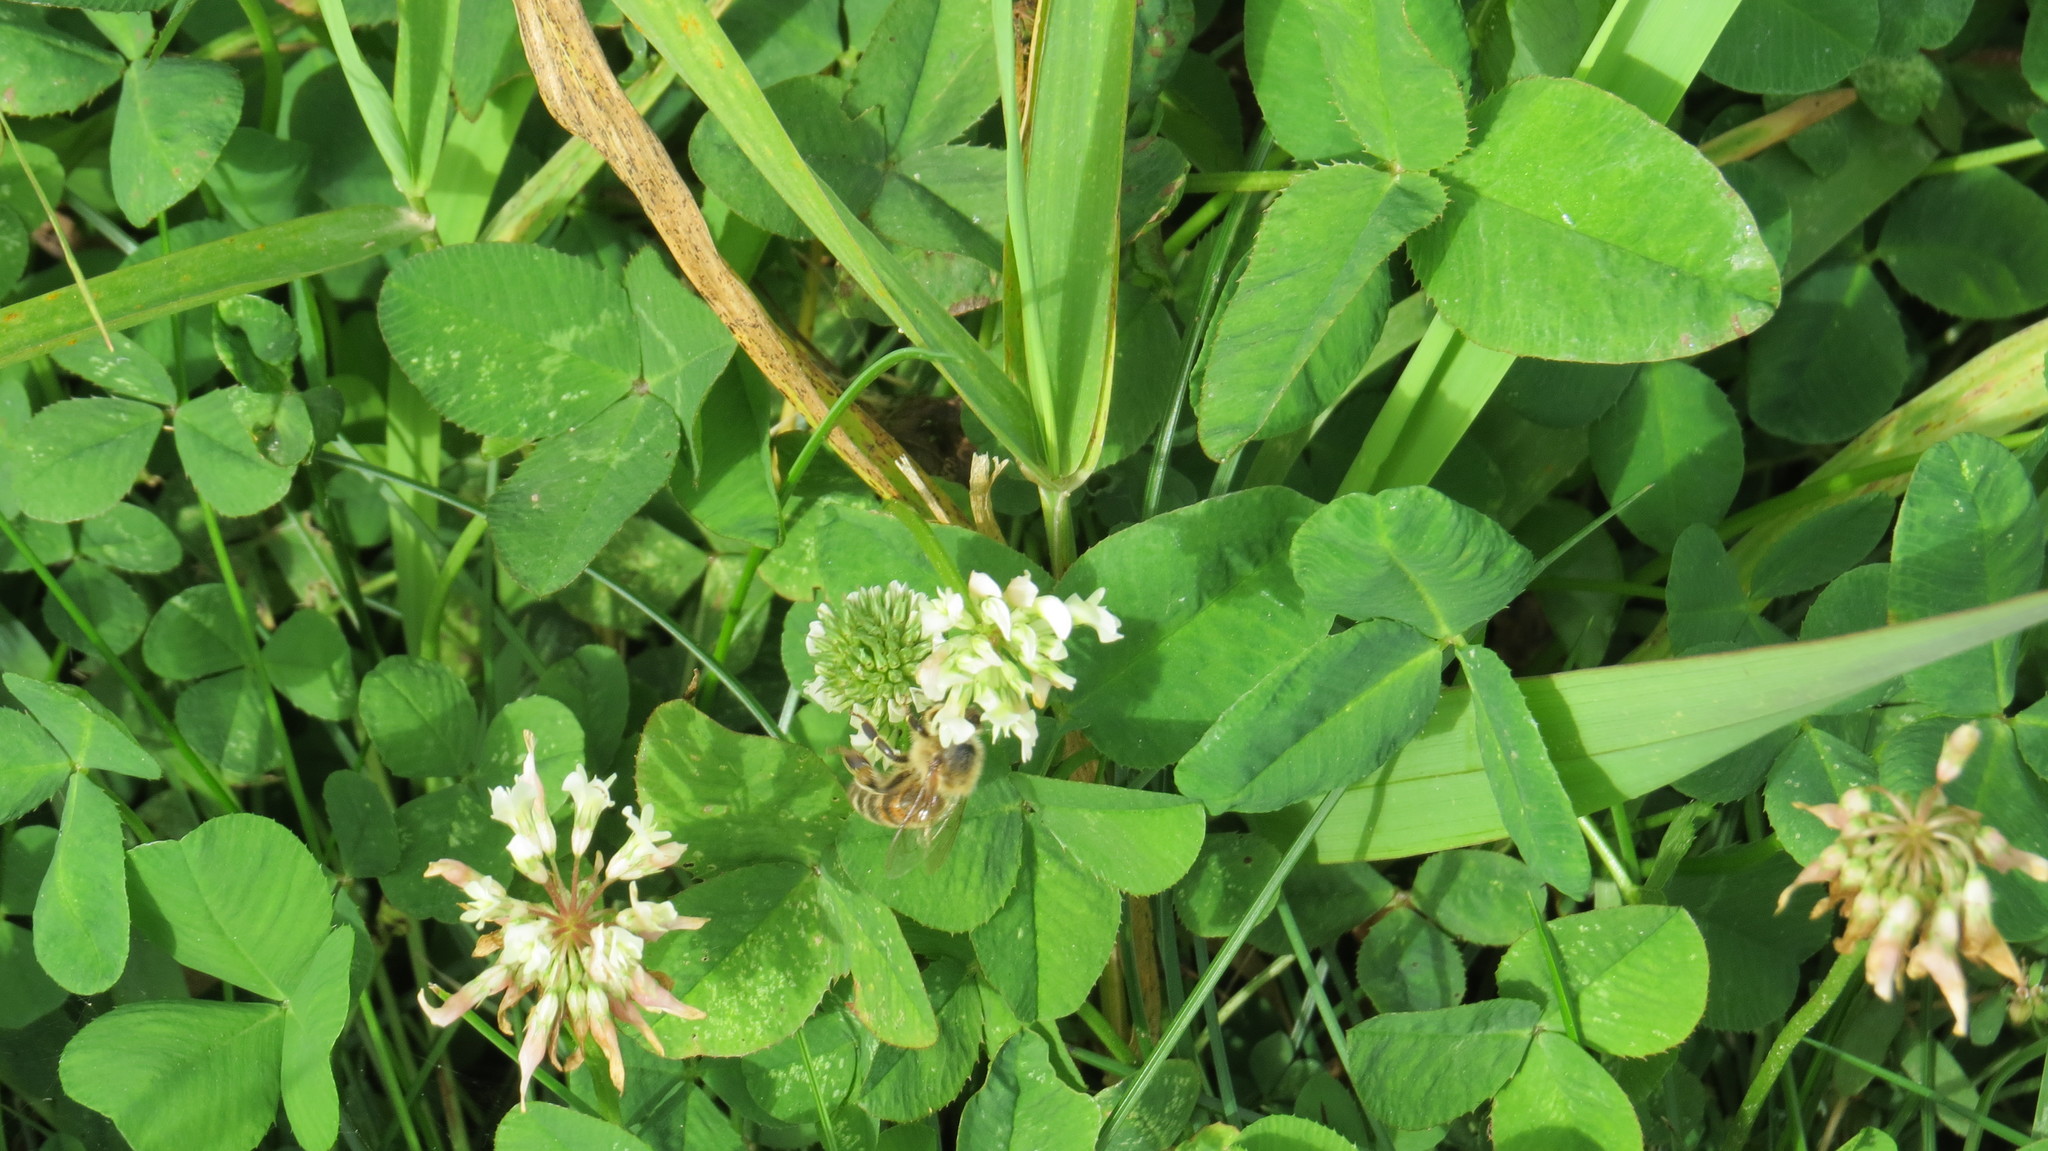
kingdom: Plantae
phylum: Tracheophyta
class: Magnoliopsida
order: Fabales
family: Fabaceae
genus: Trifolium
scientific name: Trifolium repens
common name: White clover
